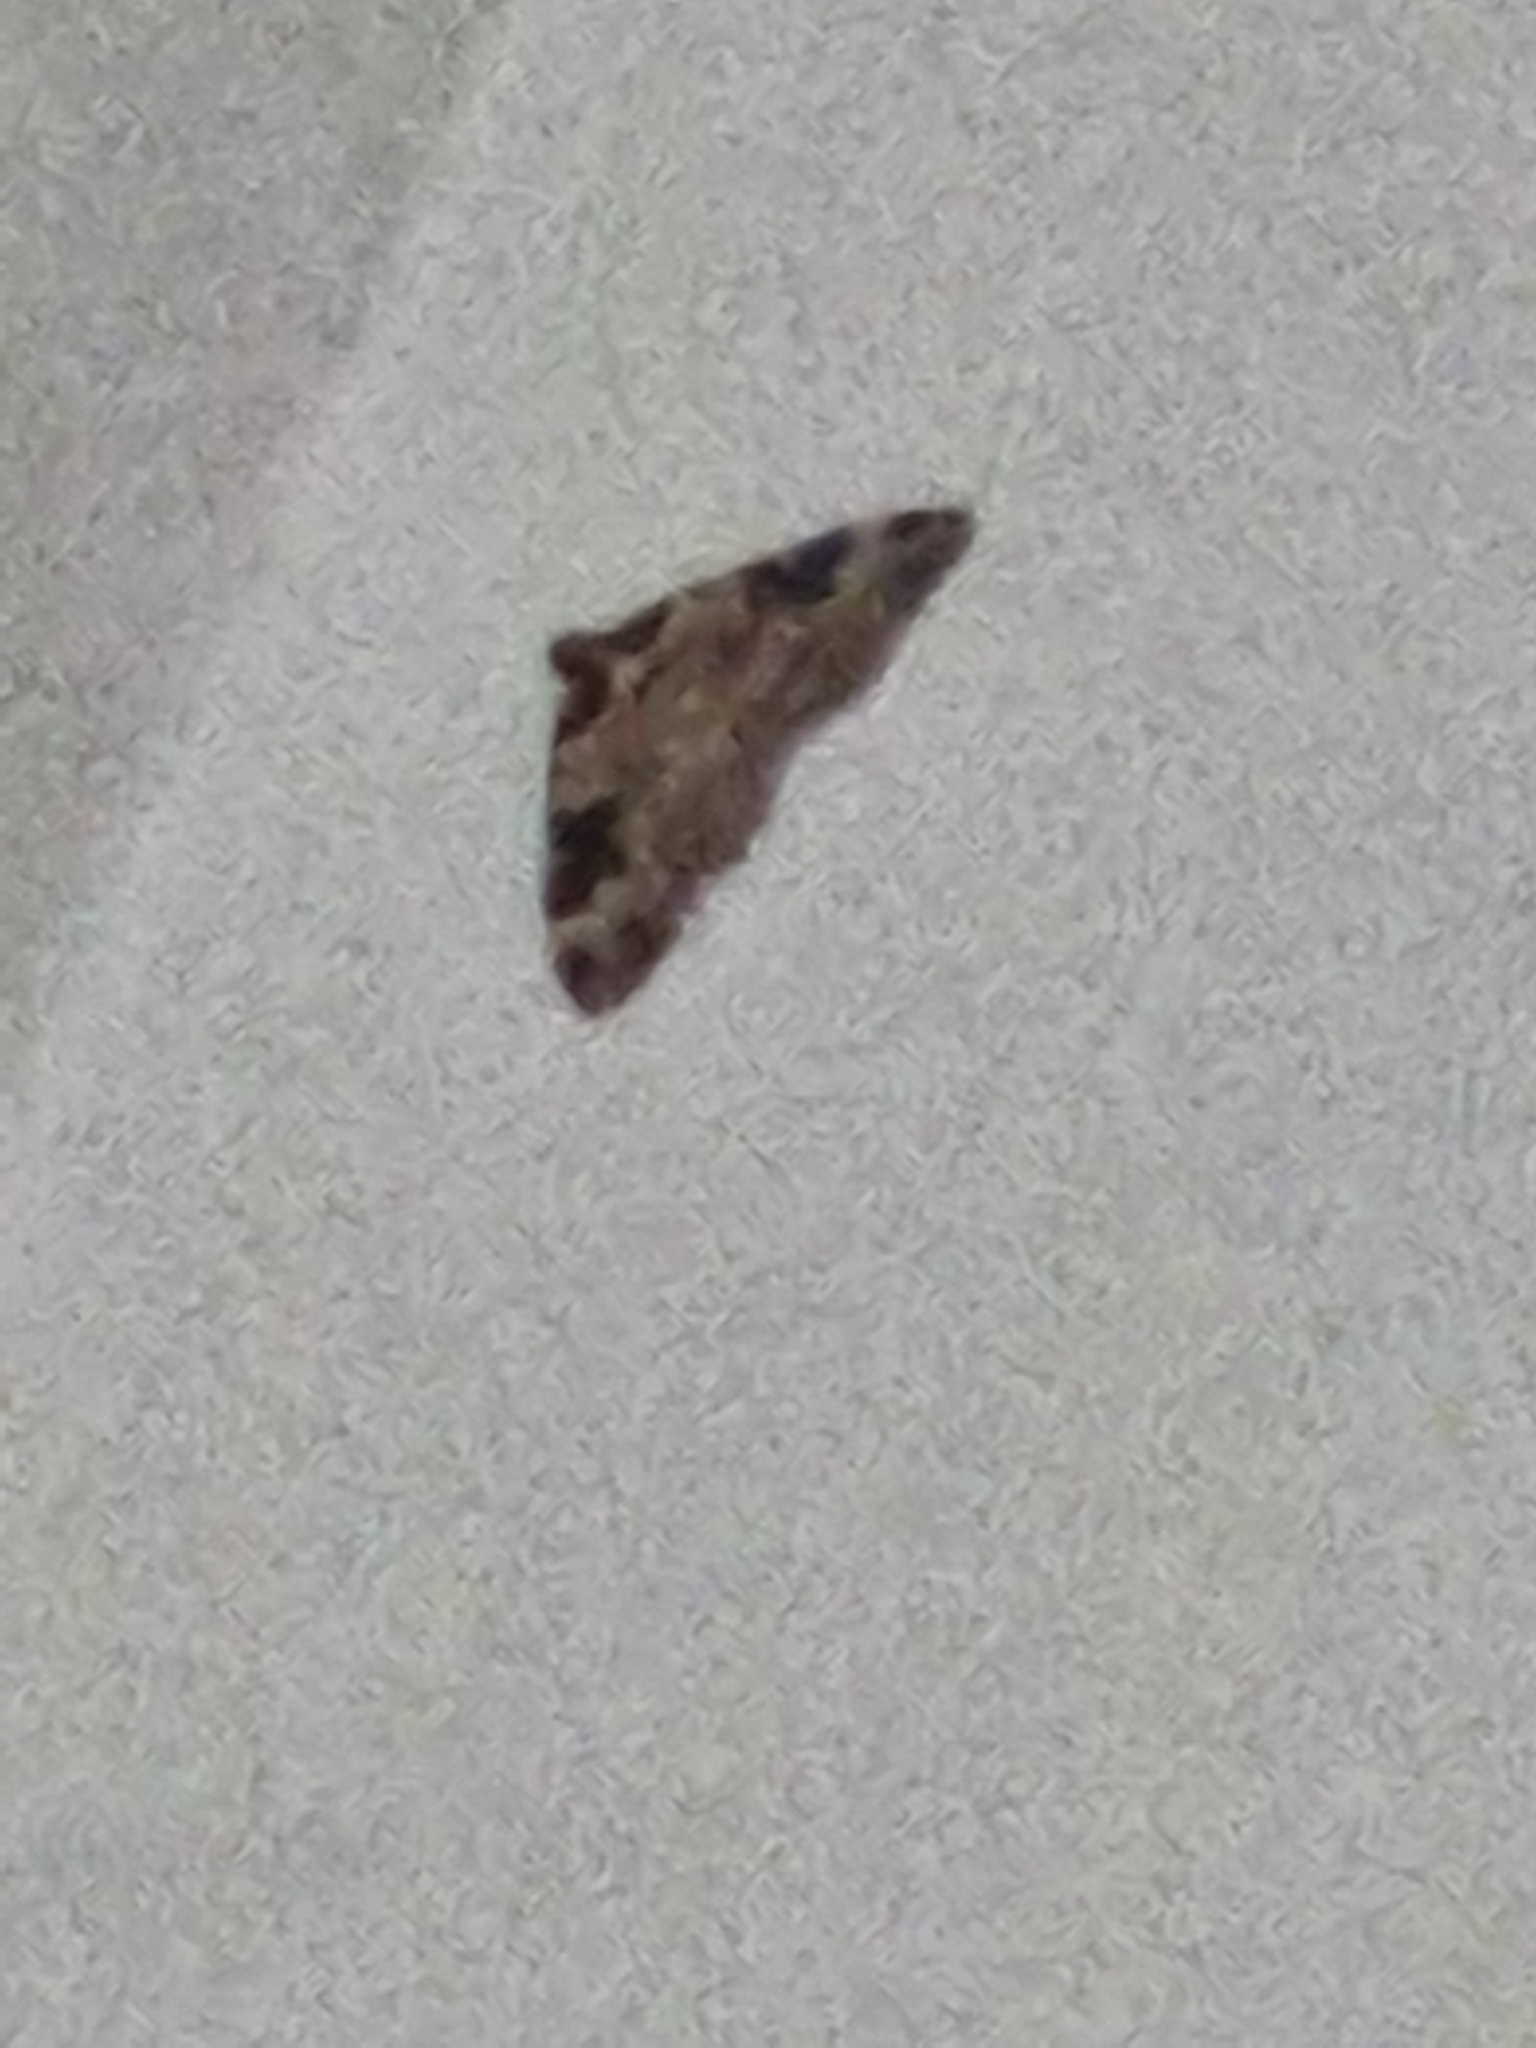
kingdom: Animalia
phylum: Arthropoda
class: Insecta
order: Lepidoptera
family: Geometridae
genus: Xanthorhoe
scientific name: Xanthorhoe fluctuata
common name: Garden carpet
